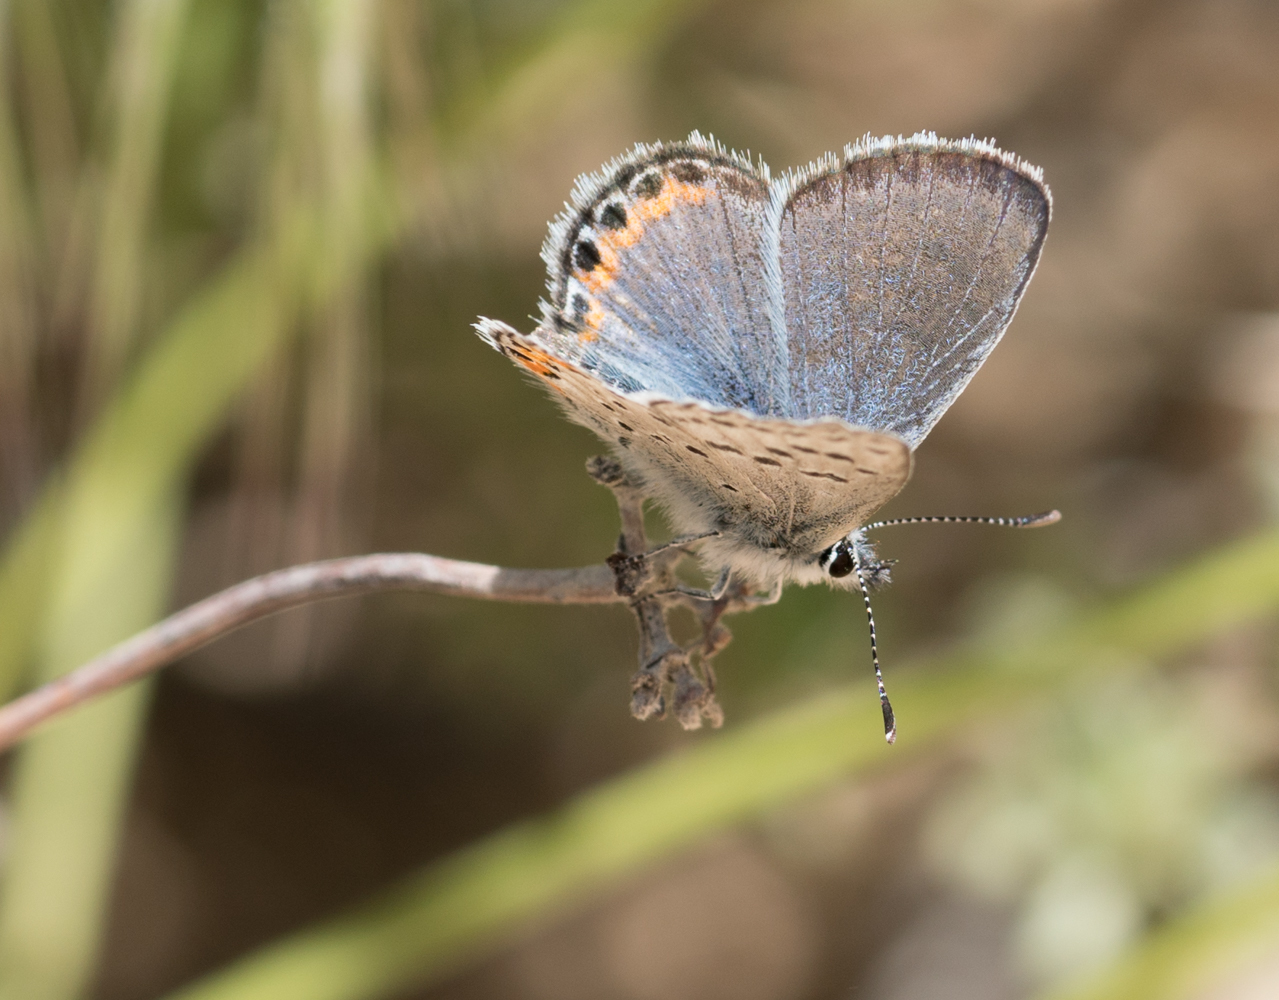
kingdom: Animalia
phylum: Arthropoda
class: Insecta
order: Lepidoptera
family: Lycaenidae
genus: Icaricia
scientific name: Icaricia acmon
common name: Acmon blue
